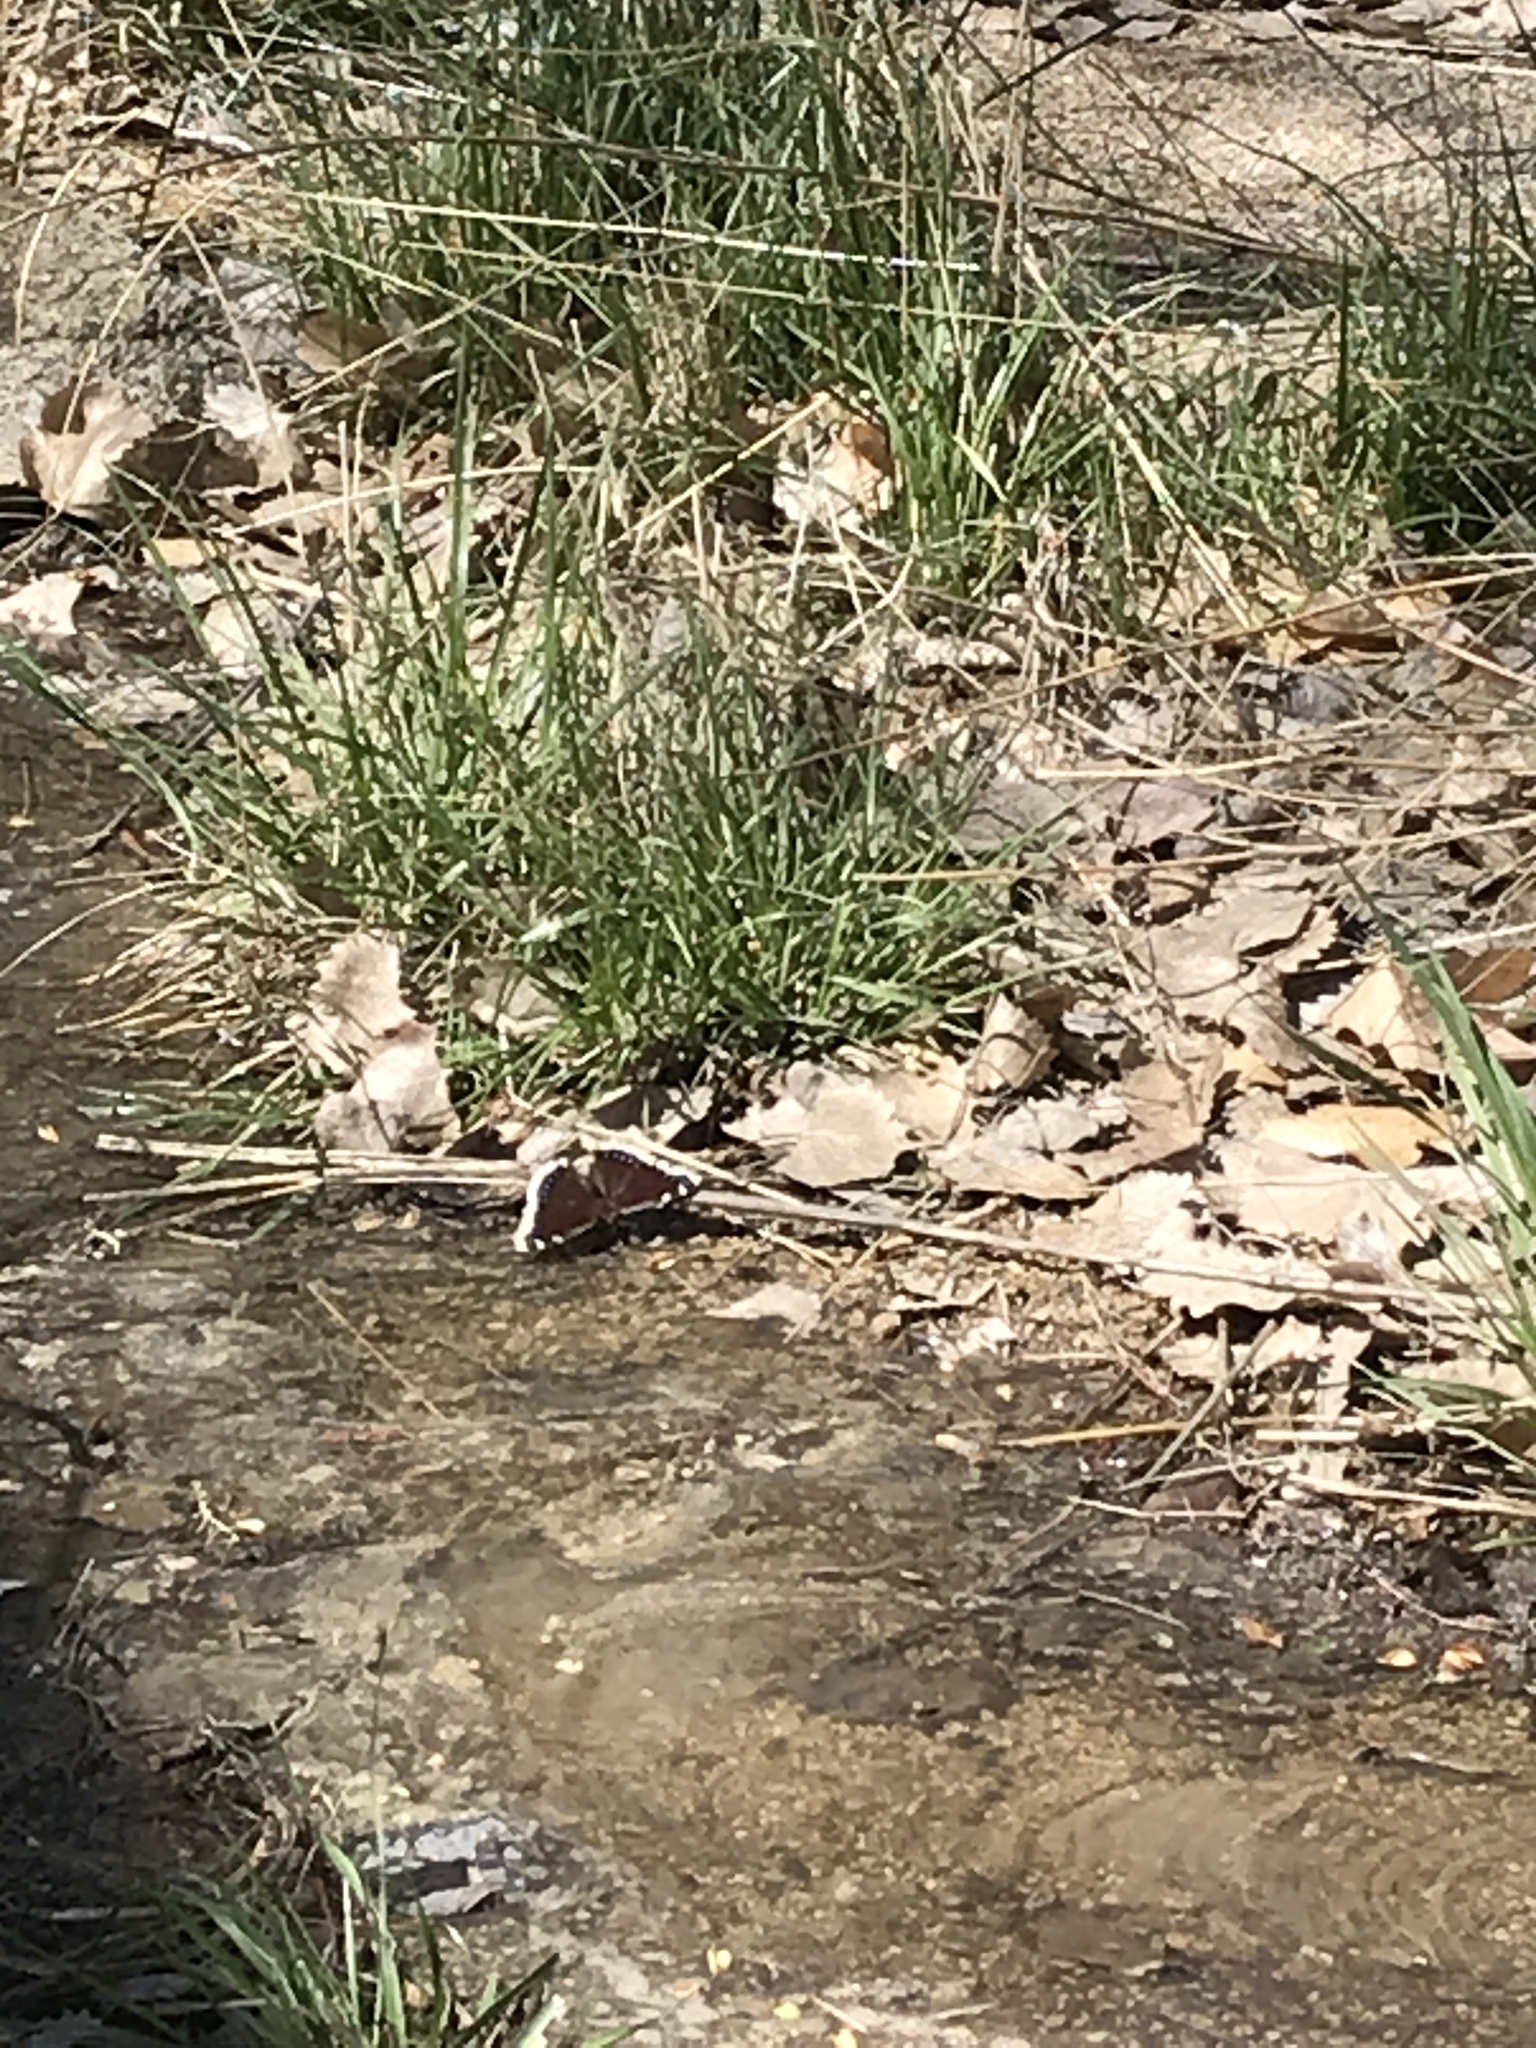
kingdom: Animalia
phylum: Arthropoda
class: Insecta
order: Lepidoptera
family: Nymphalidae
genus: Nymphalis
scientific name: Nymphalis antiopa
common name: Camberwell beauty
